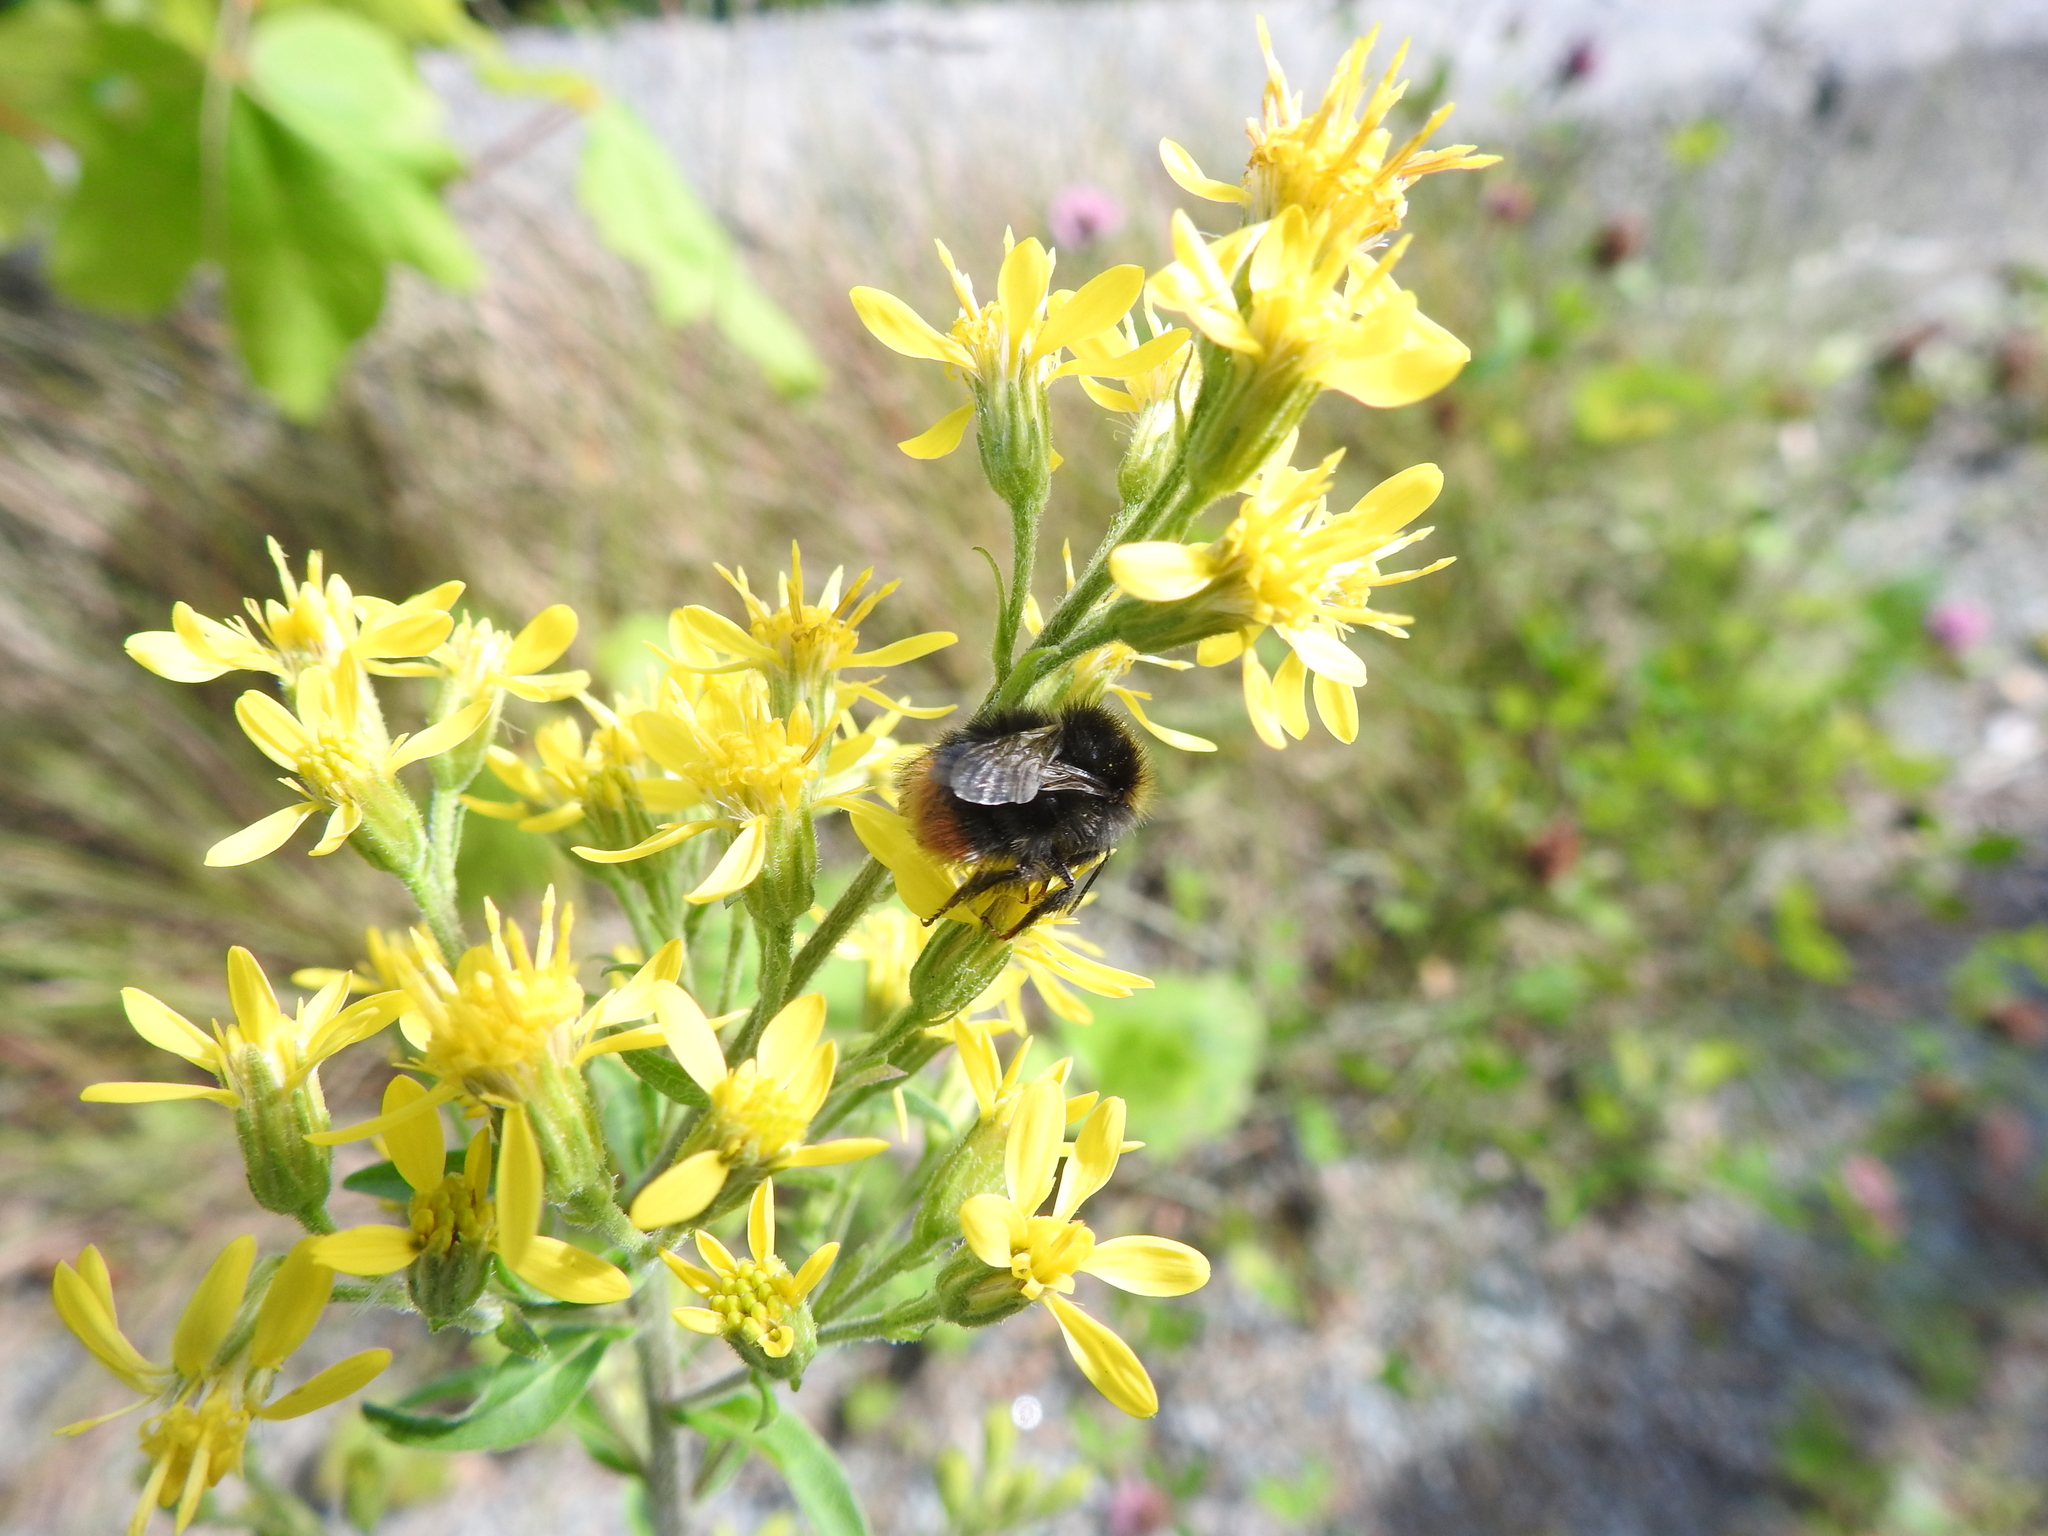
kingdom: Animalia
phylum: Arthropoda
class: Insecta
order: Hymenoptera
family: Apidae
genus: Bombus
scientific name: Bombus pratorum
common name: Early humble-bee
